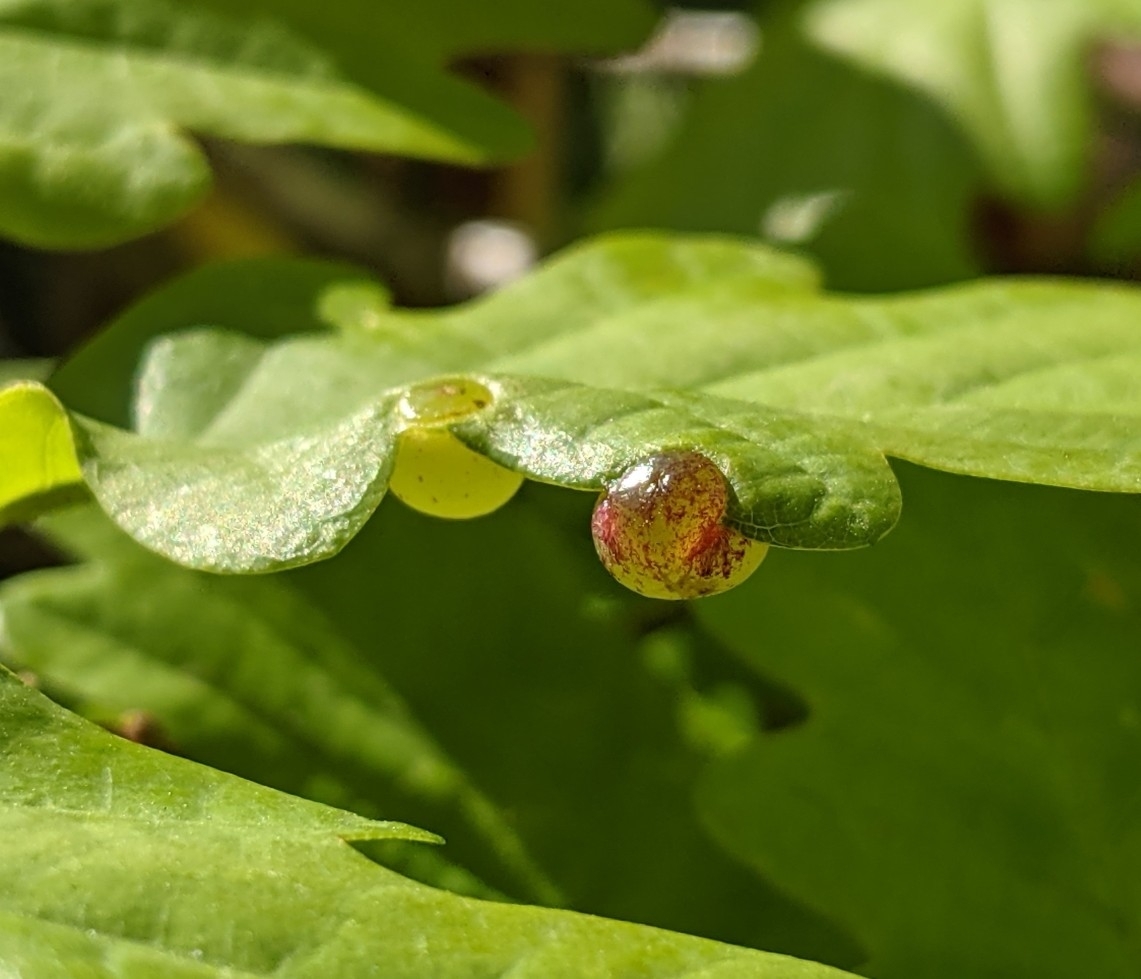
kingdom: Animalia
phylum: Arthropoda
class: Insecta
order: Hymenoptera
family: Cynipidae
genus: Neuroterus
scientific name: Neuroterus quercusbaccarum
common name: Common spangle gall
